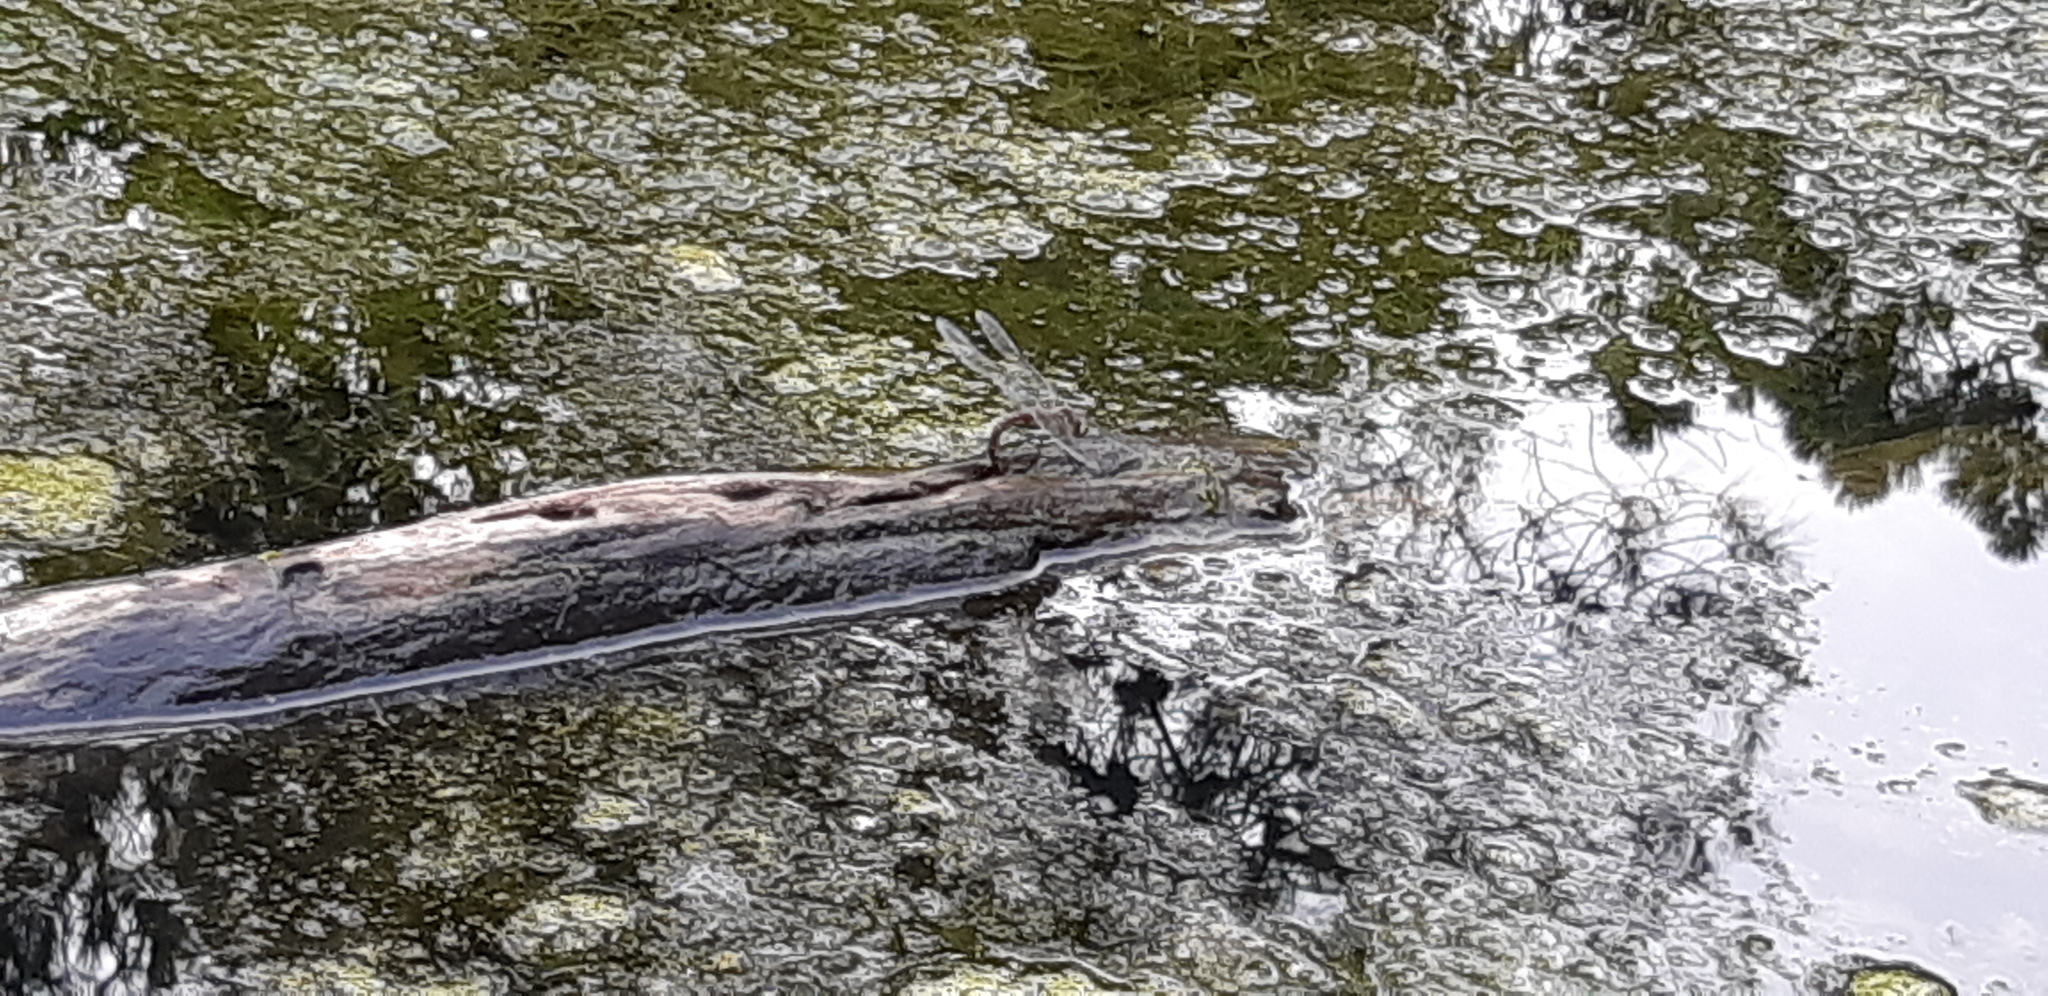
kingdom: Animalia
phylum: Arthropoda
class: Insecta
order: Odonata
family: Aeshnidae
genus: Aeshna
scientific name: Aeshna mixta
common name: Migrant hawker
